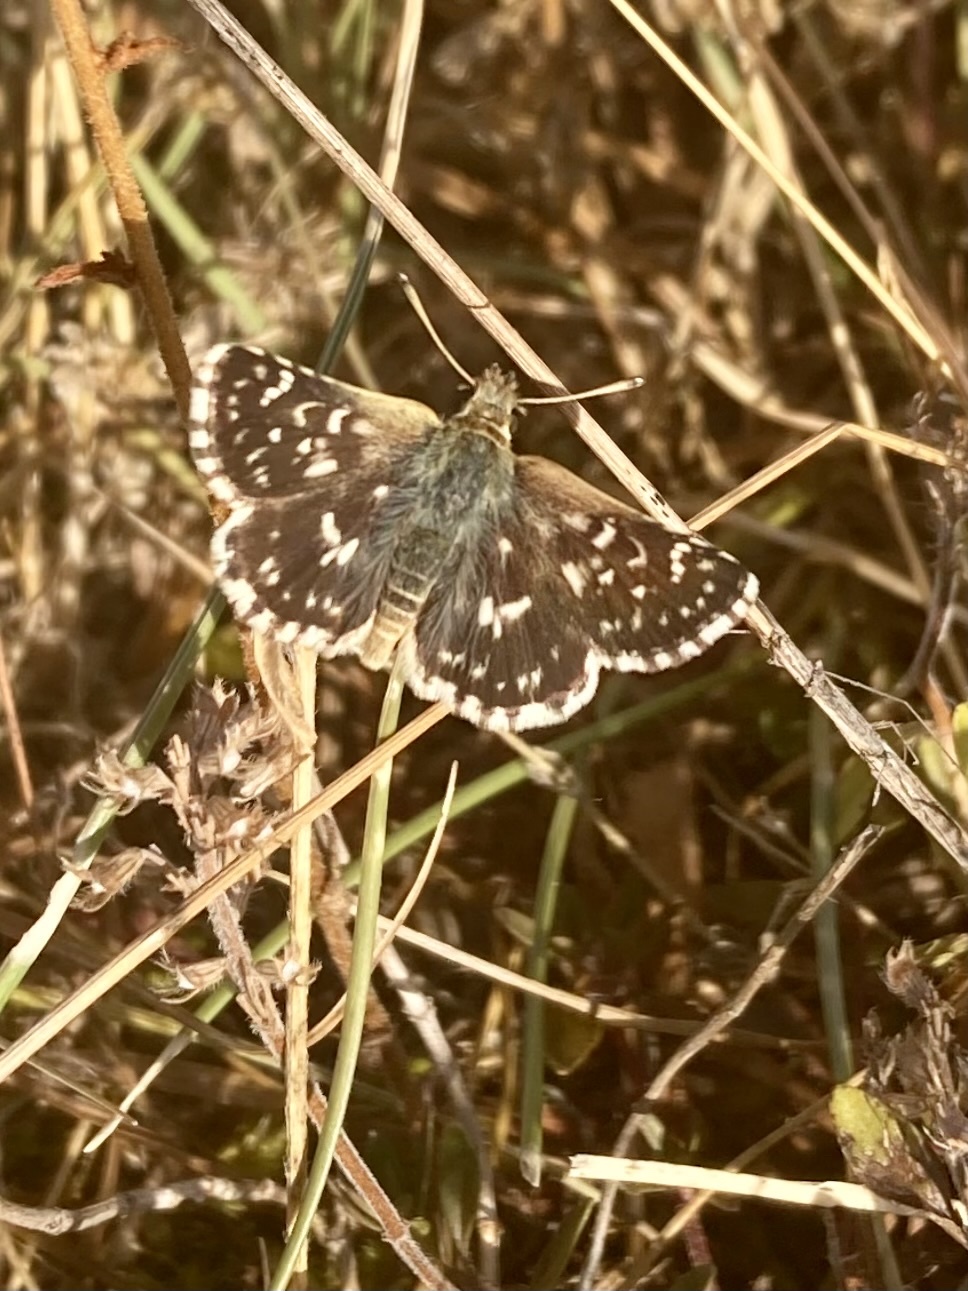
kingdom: Animalia
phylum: Arthropoda
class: Insecta
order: Lepidoptera
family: Hesperiidae
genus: Spialia
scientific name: Spialia sertorius
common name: Red underwing skipper
